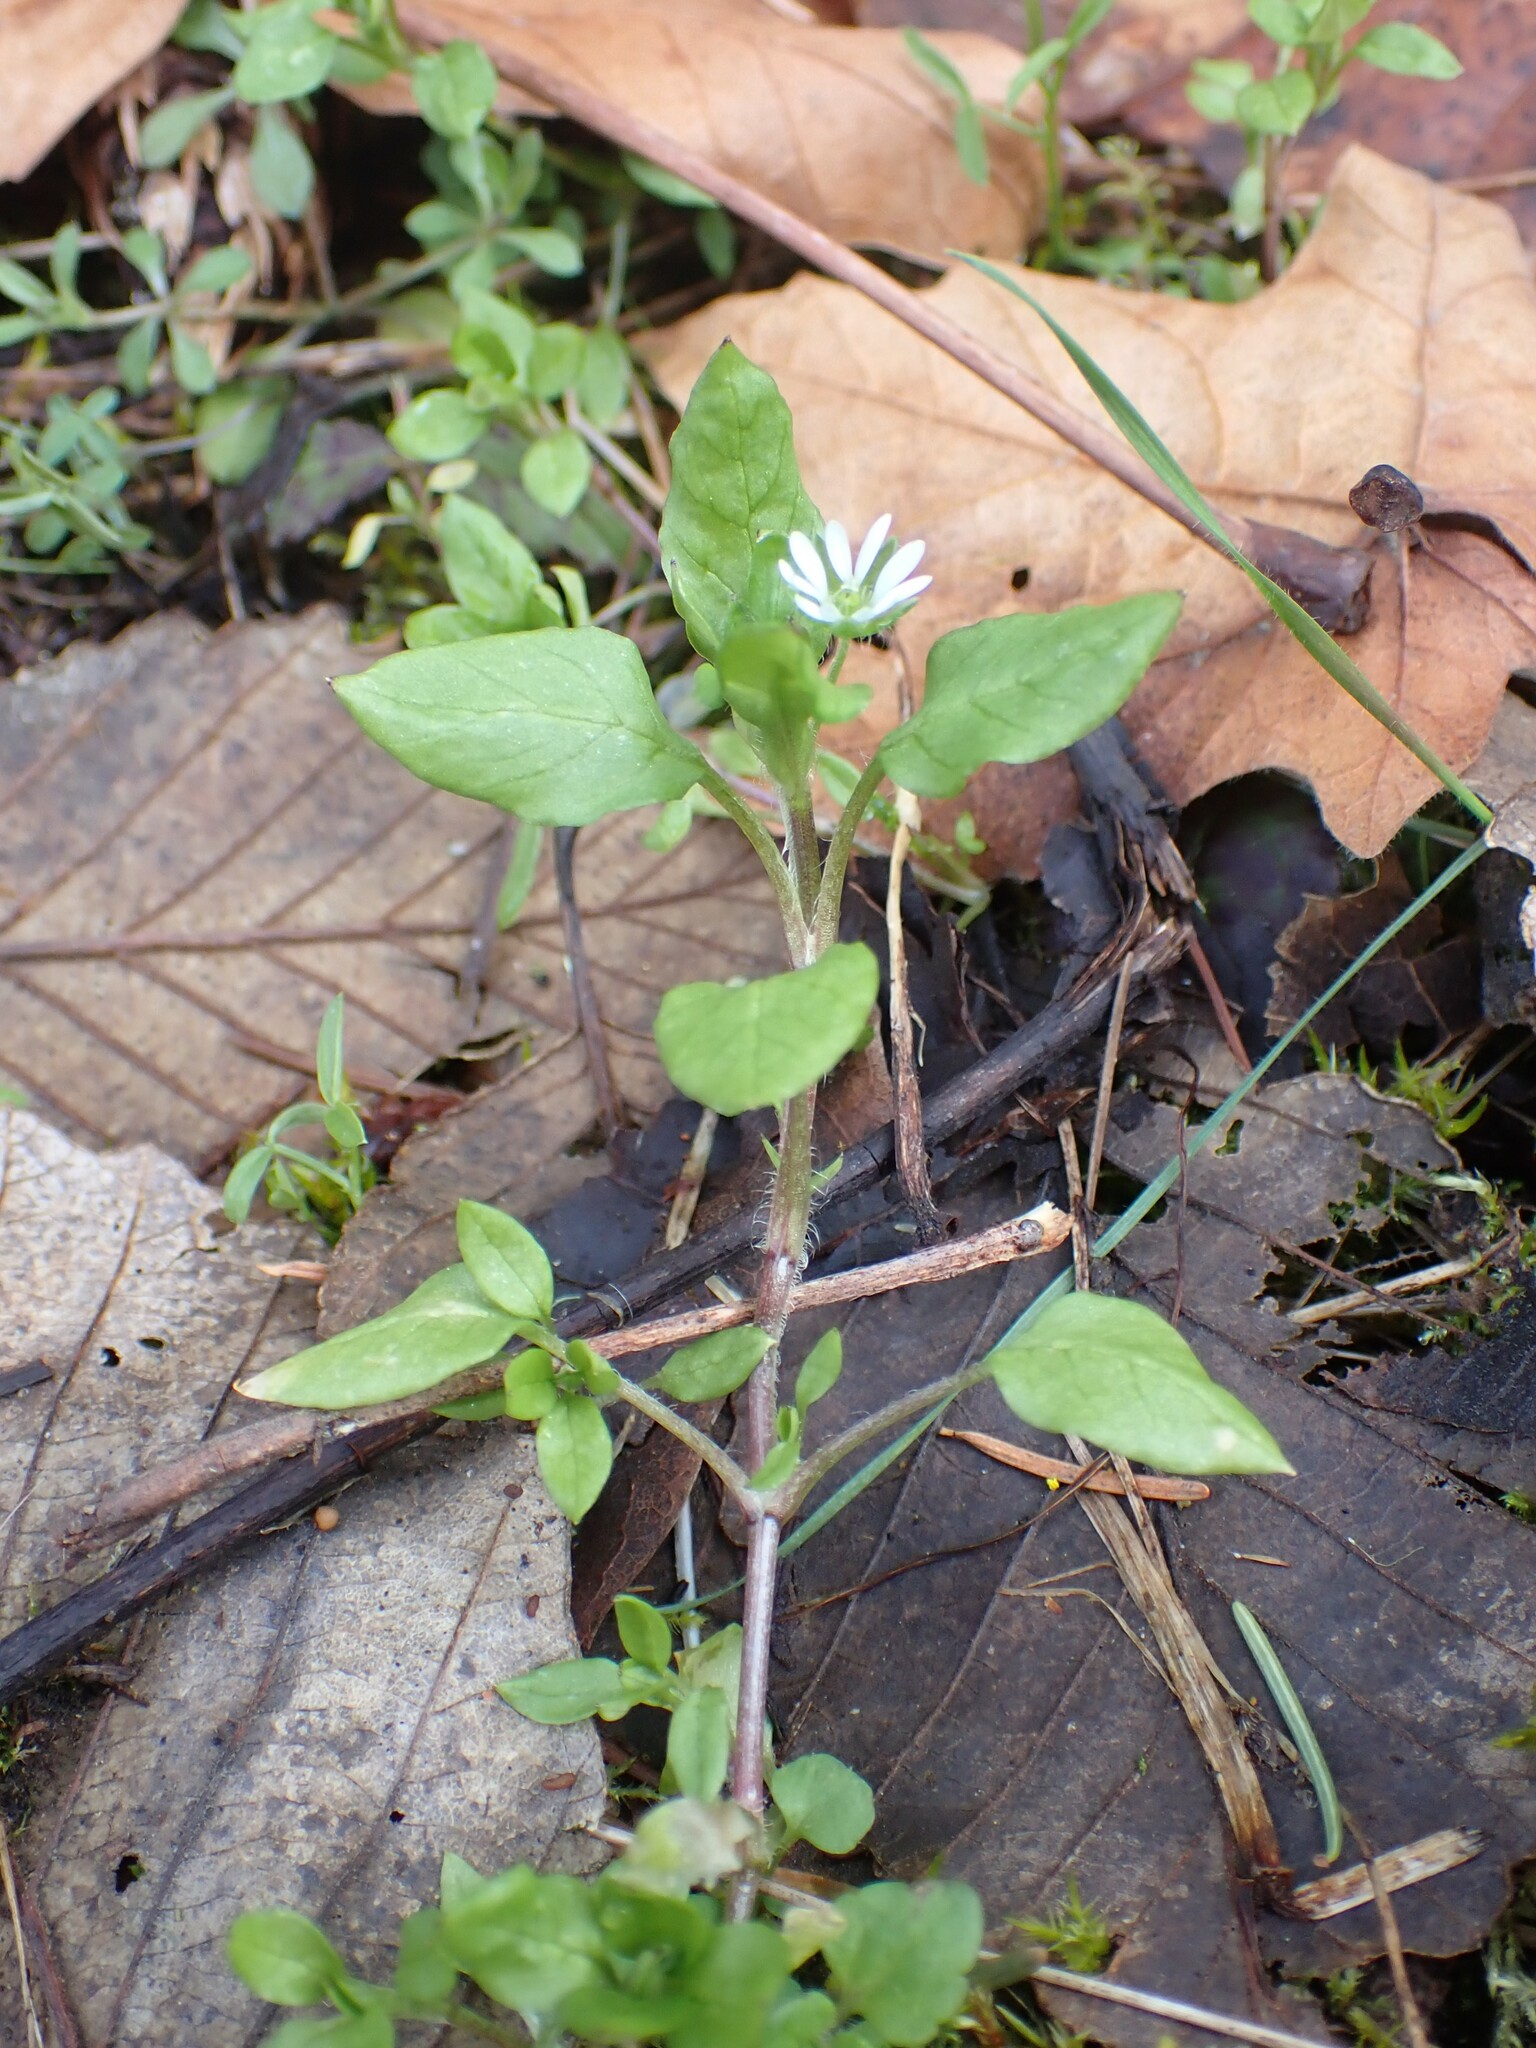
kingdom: Plantae
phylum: Tracheophyta
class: Magnoliopsida
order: Caryophyllales
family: Caryophyllaceae
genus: Stellaria
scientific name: Stellaria media
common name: Common chickweed
